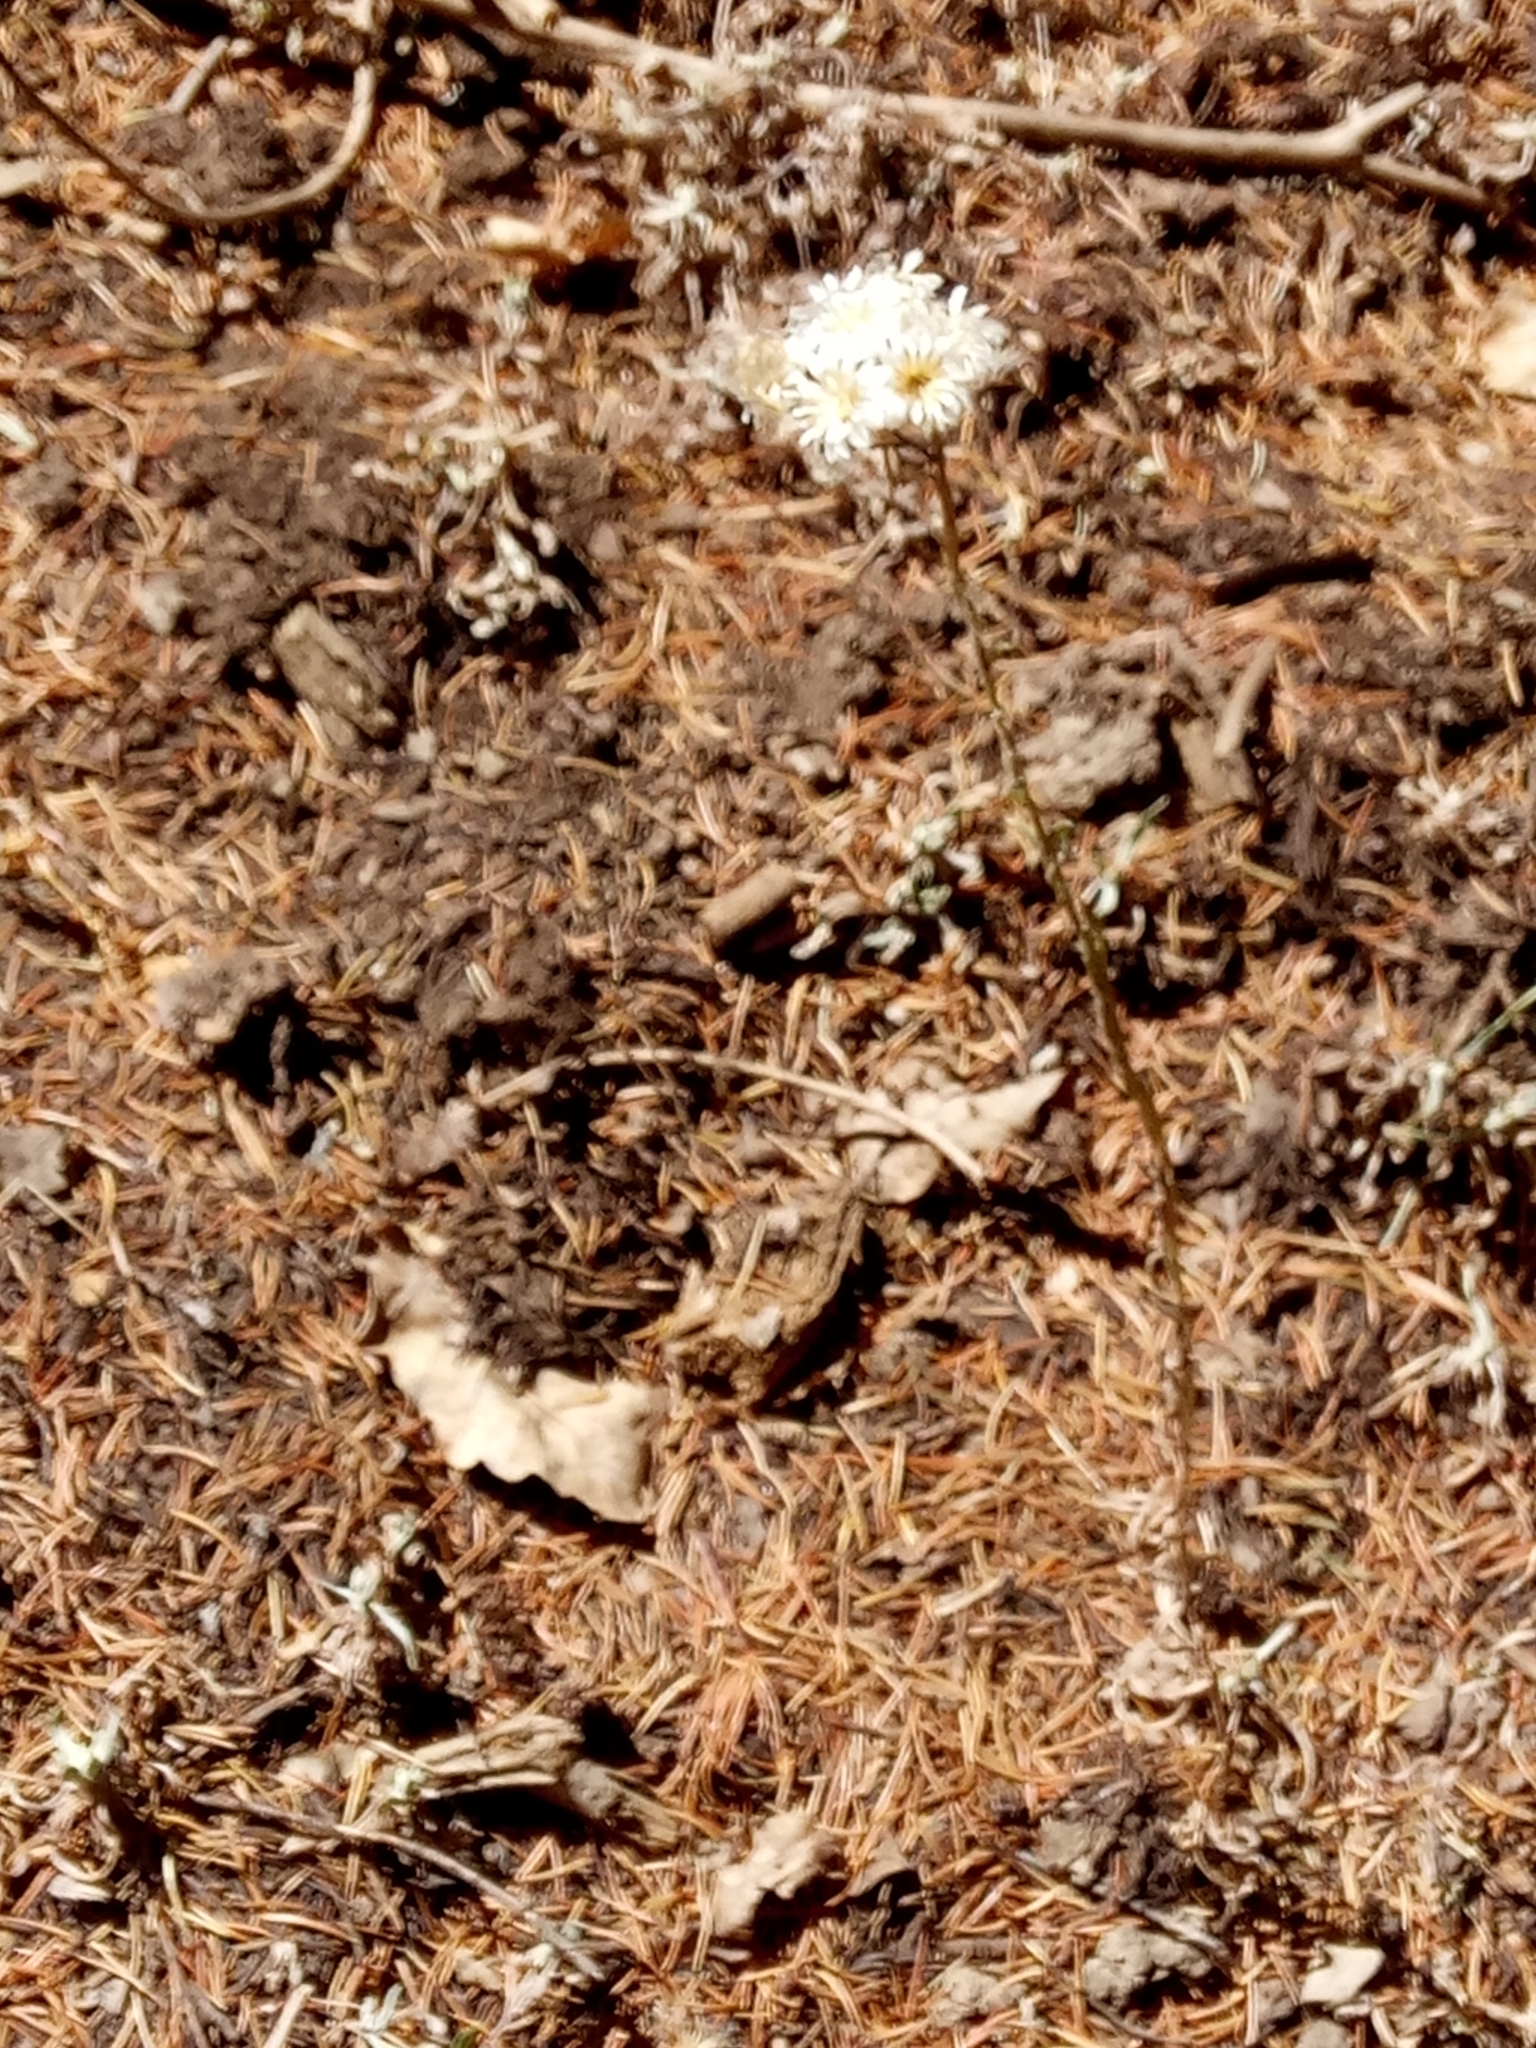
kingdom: Plantae
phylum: Tracheophyta
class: Magnoliopsida
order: Asterales
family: Asteraceae
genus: Helichrysum
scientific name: Helichrysum lacteum
